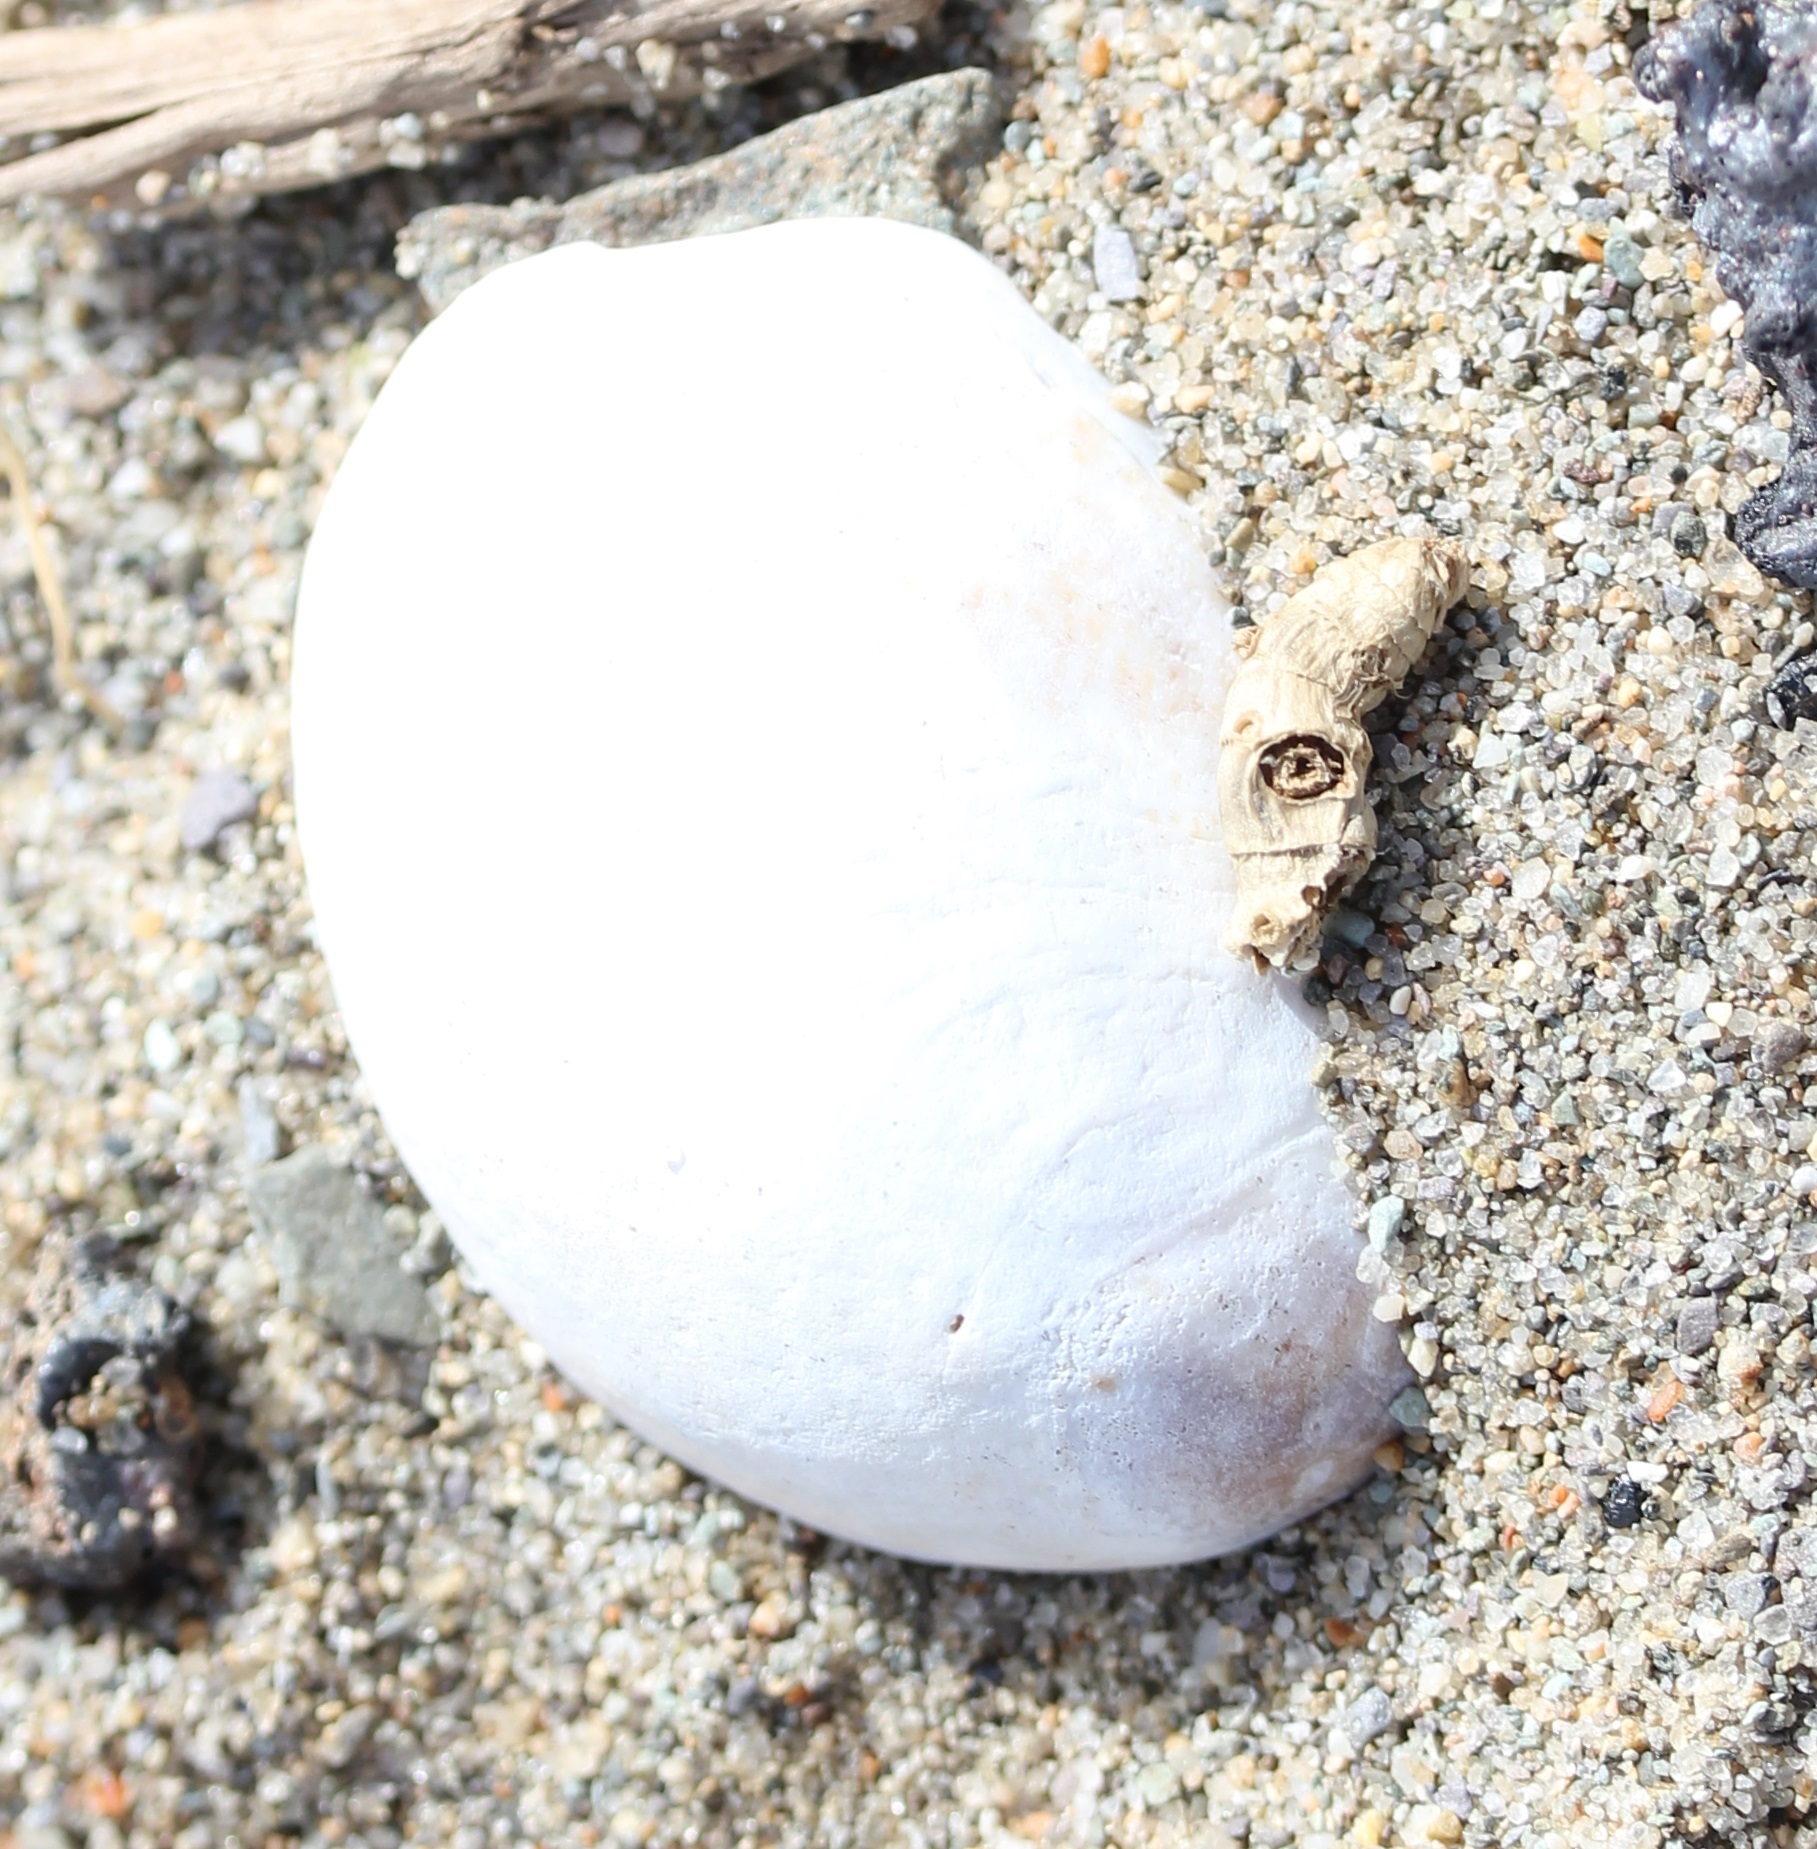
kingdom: Animalia
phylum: Mollusca
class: Gastropoda
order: Littorinimorpha
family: Calyptraeidae
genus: Crepidula
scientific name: Crepidula fornicata
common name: Slipper limpet
